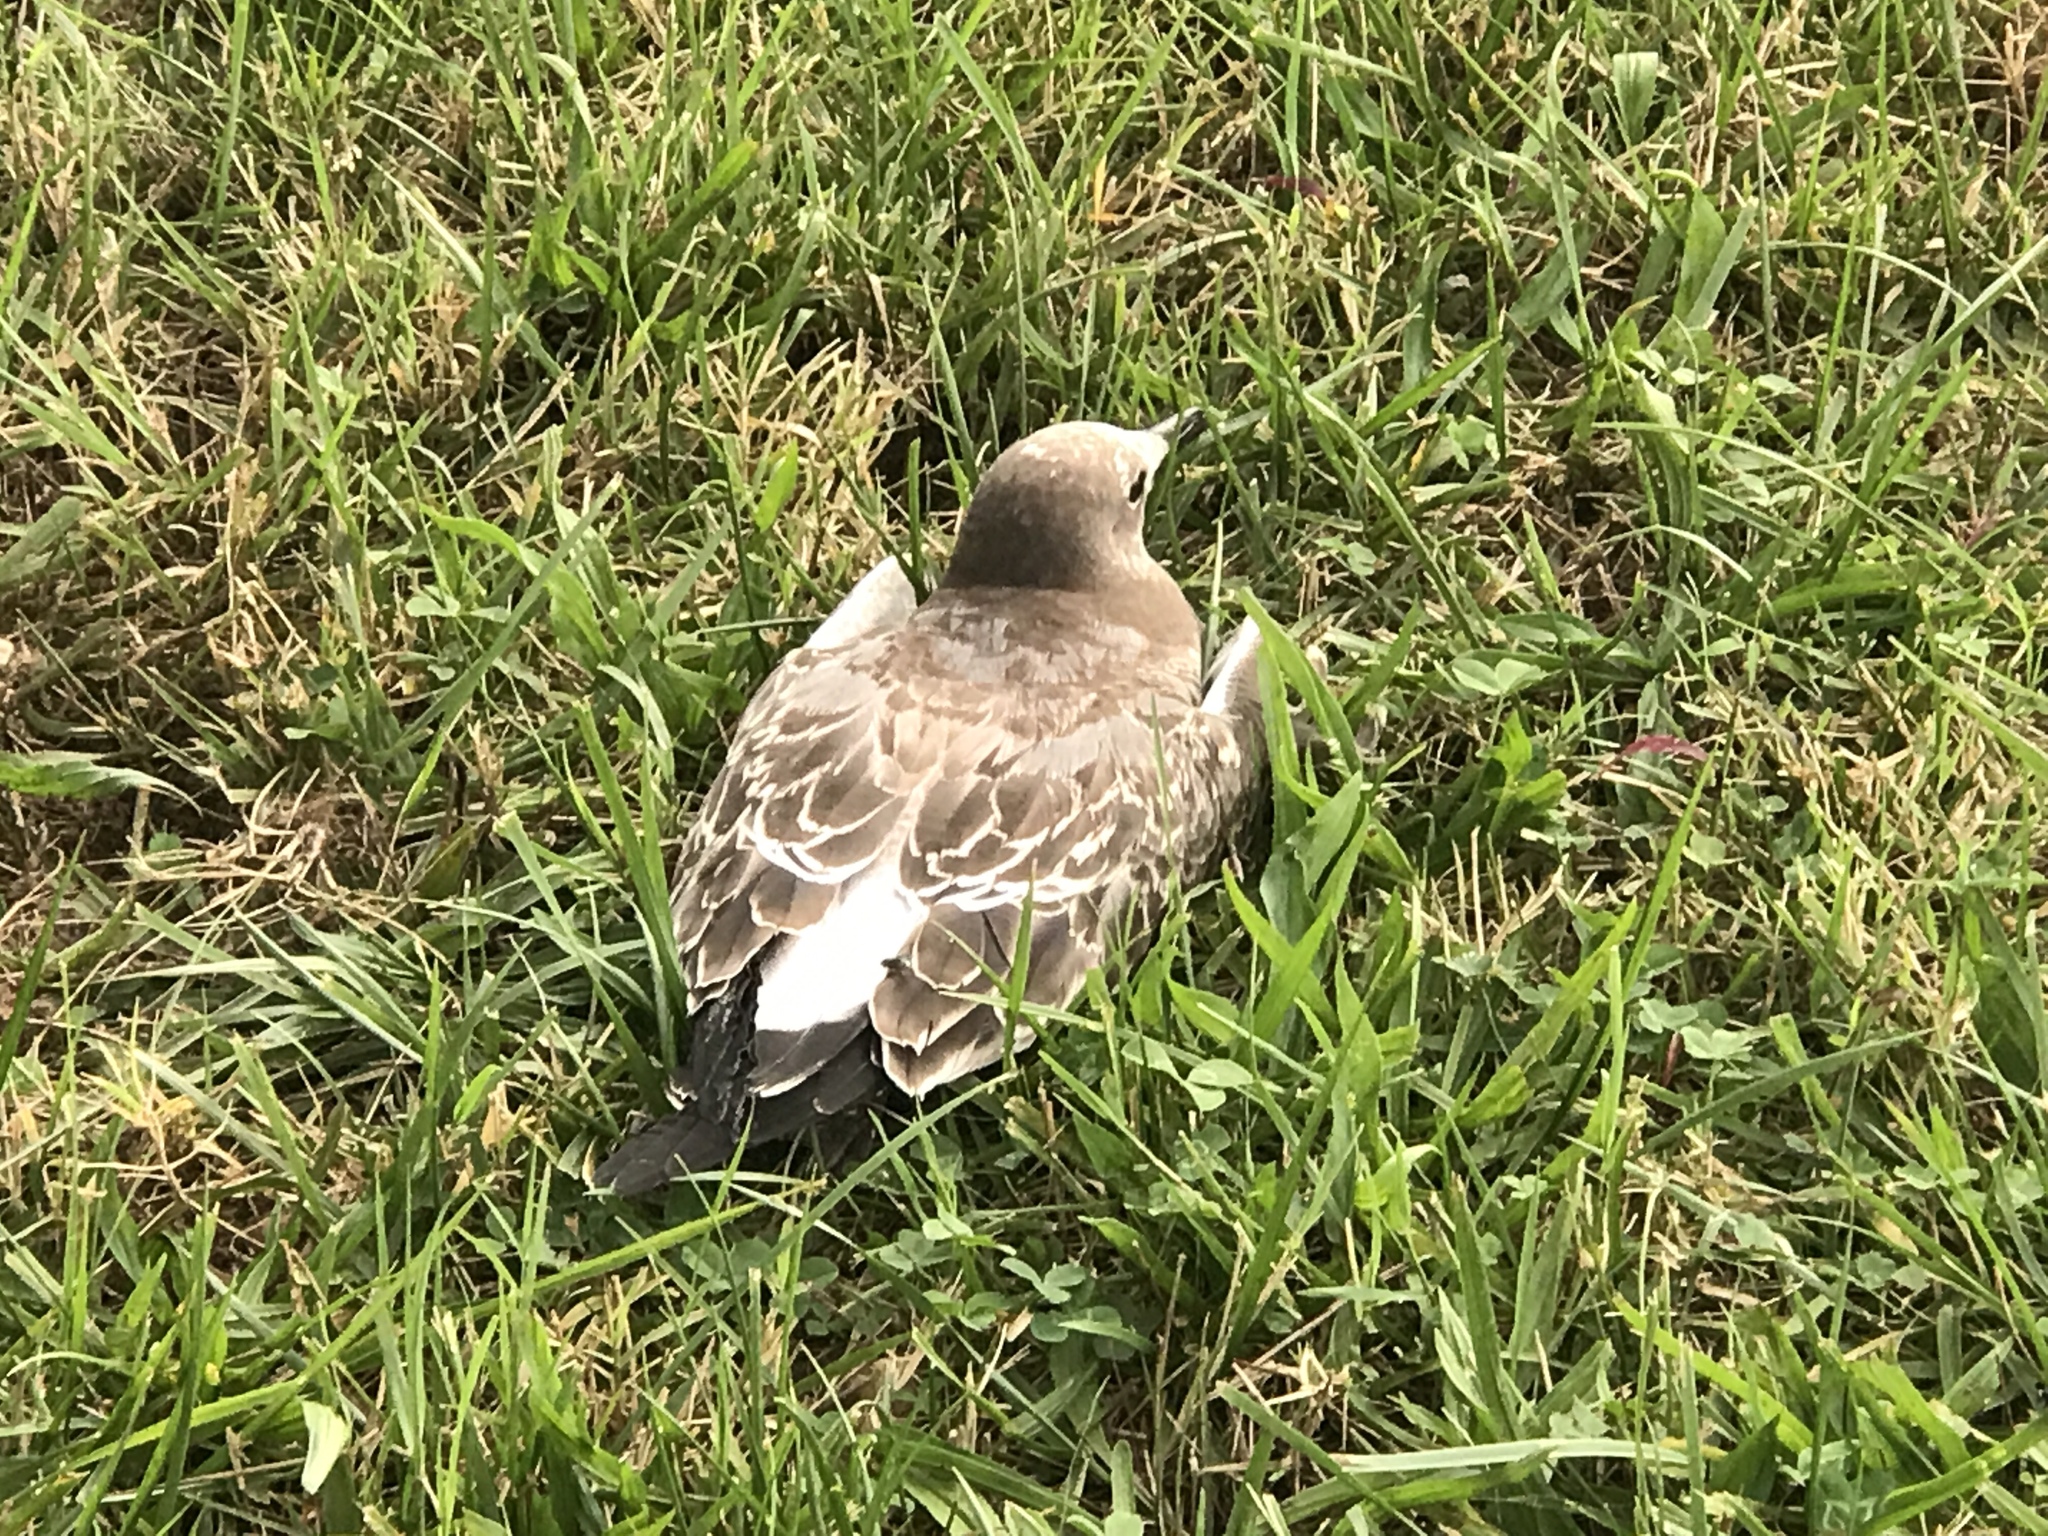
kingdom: Animalia
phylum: Chordata
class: Aves
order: Charadriiformes
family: Laridae
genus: Leucophaeus
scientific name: Leucophaeus atricilla
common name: Laughing gull
